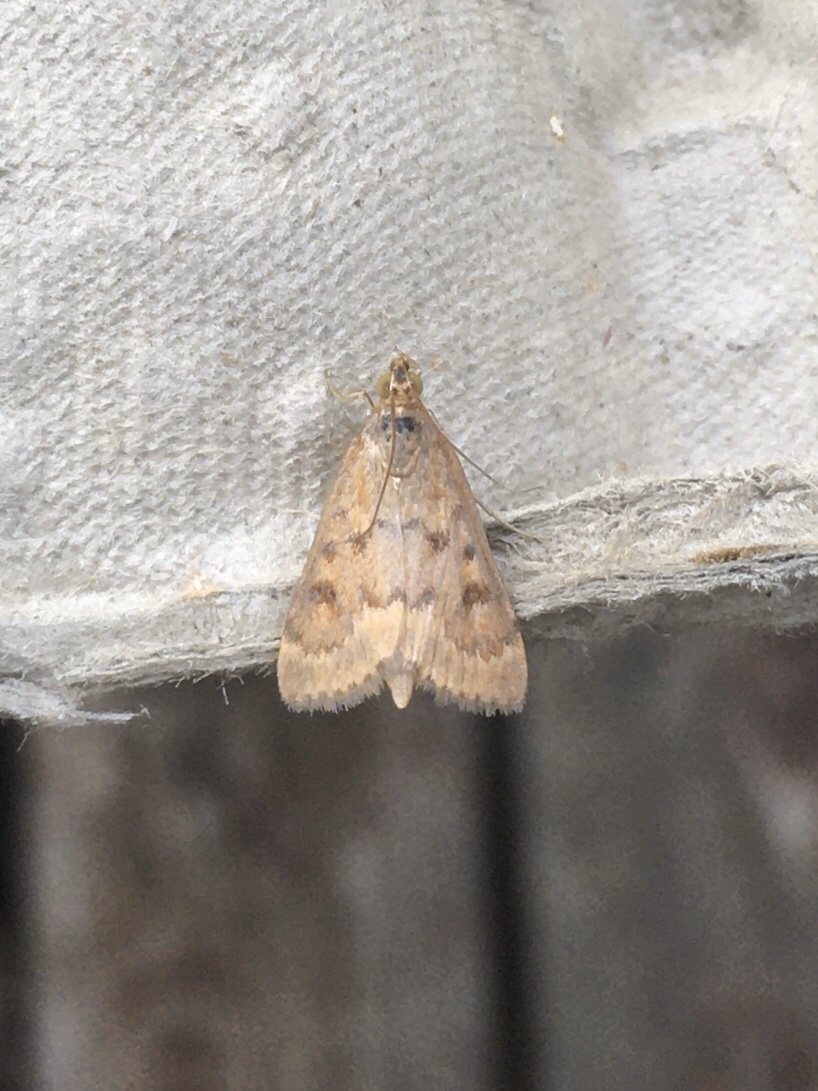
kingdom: Animalia
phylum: Arthropoda
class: Insecta
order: Lepidoptera
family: Crambidae
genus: Achyra
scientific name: Achyra rantalis
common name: Garden webworm
